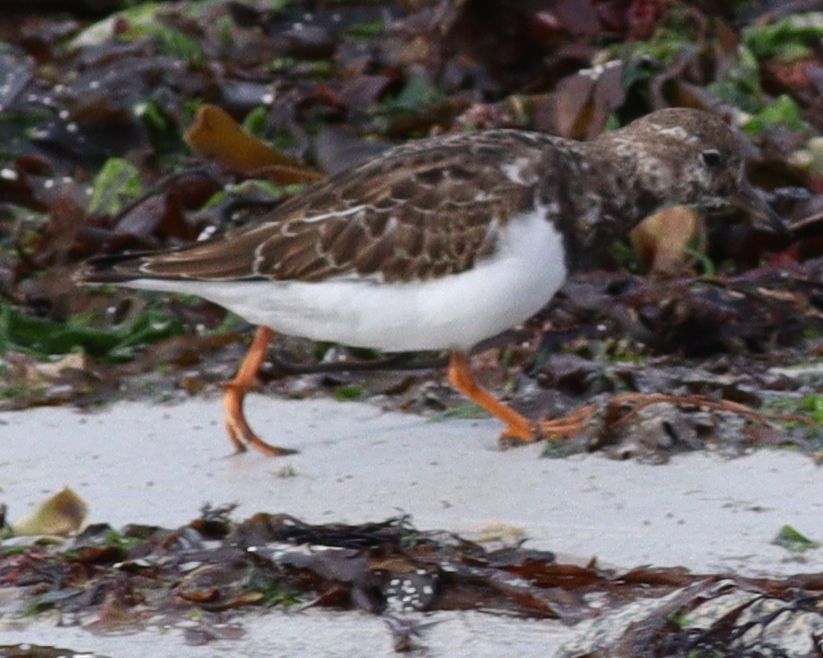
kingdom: Animalia
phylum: Chordata
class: Aves
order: Charadriiformes
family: Scolopacidae
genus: Arenaria
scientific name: Arenaria interpres
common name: Ruddy turnstone
